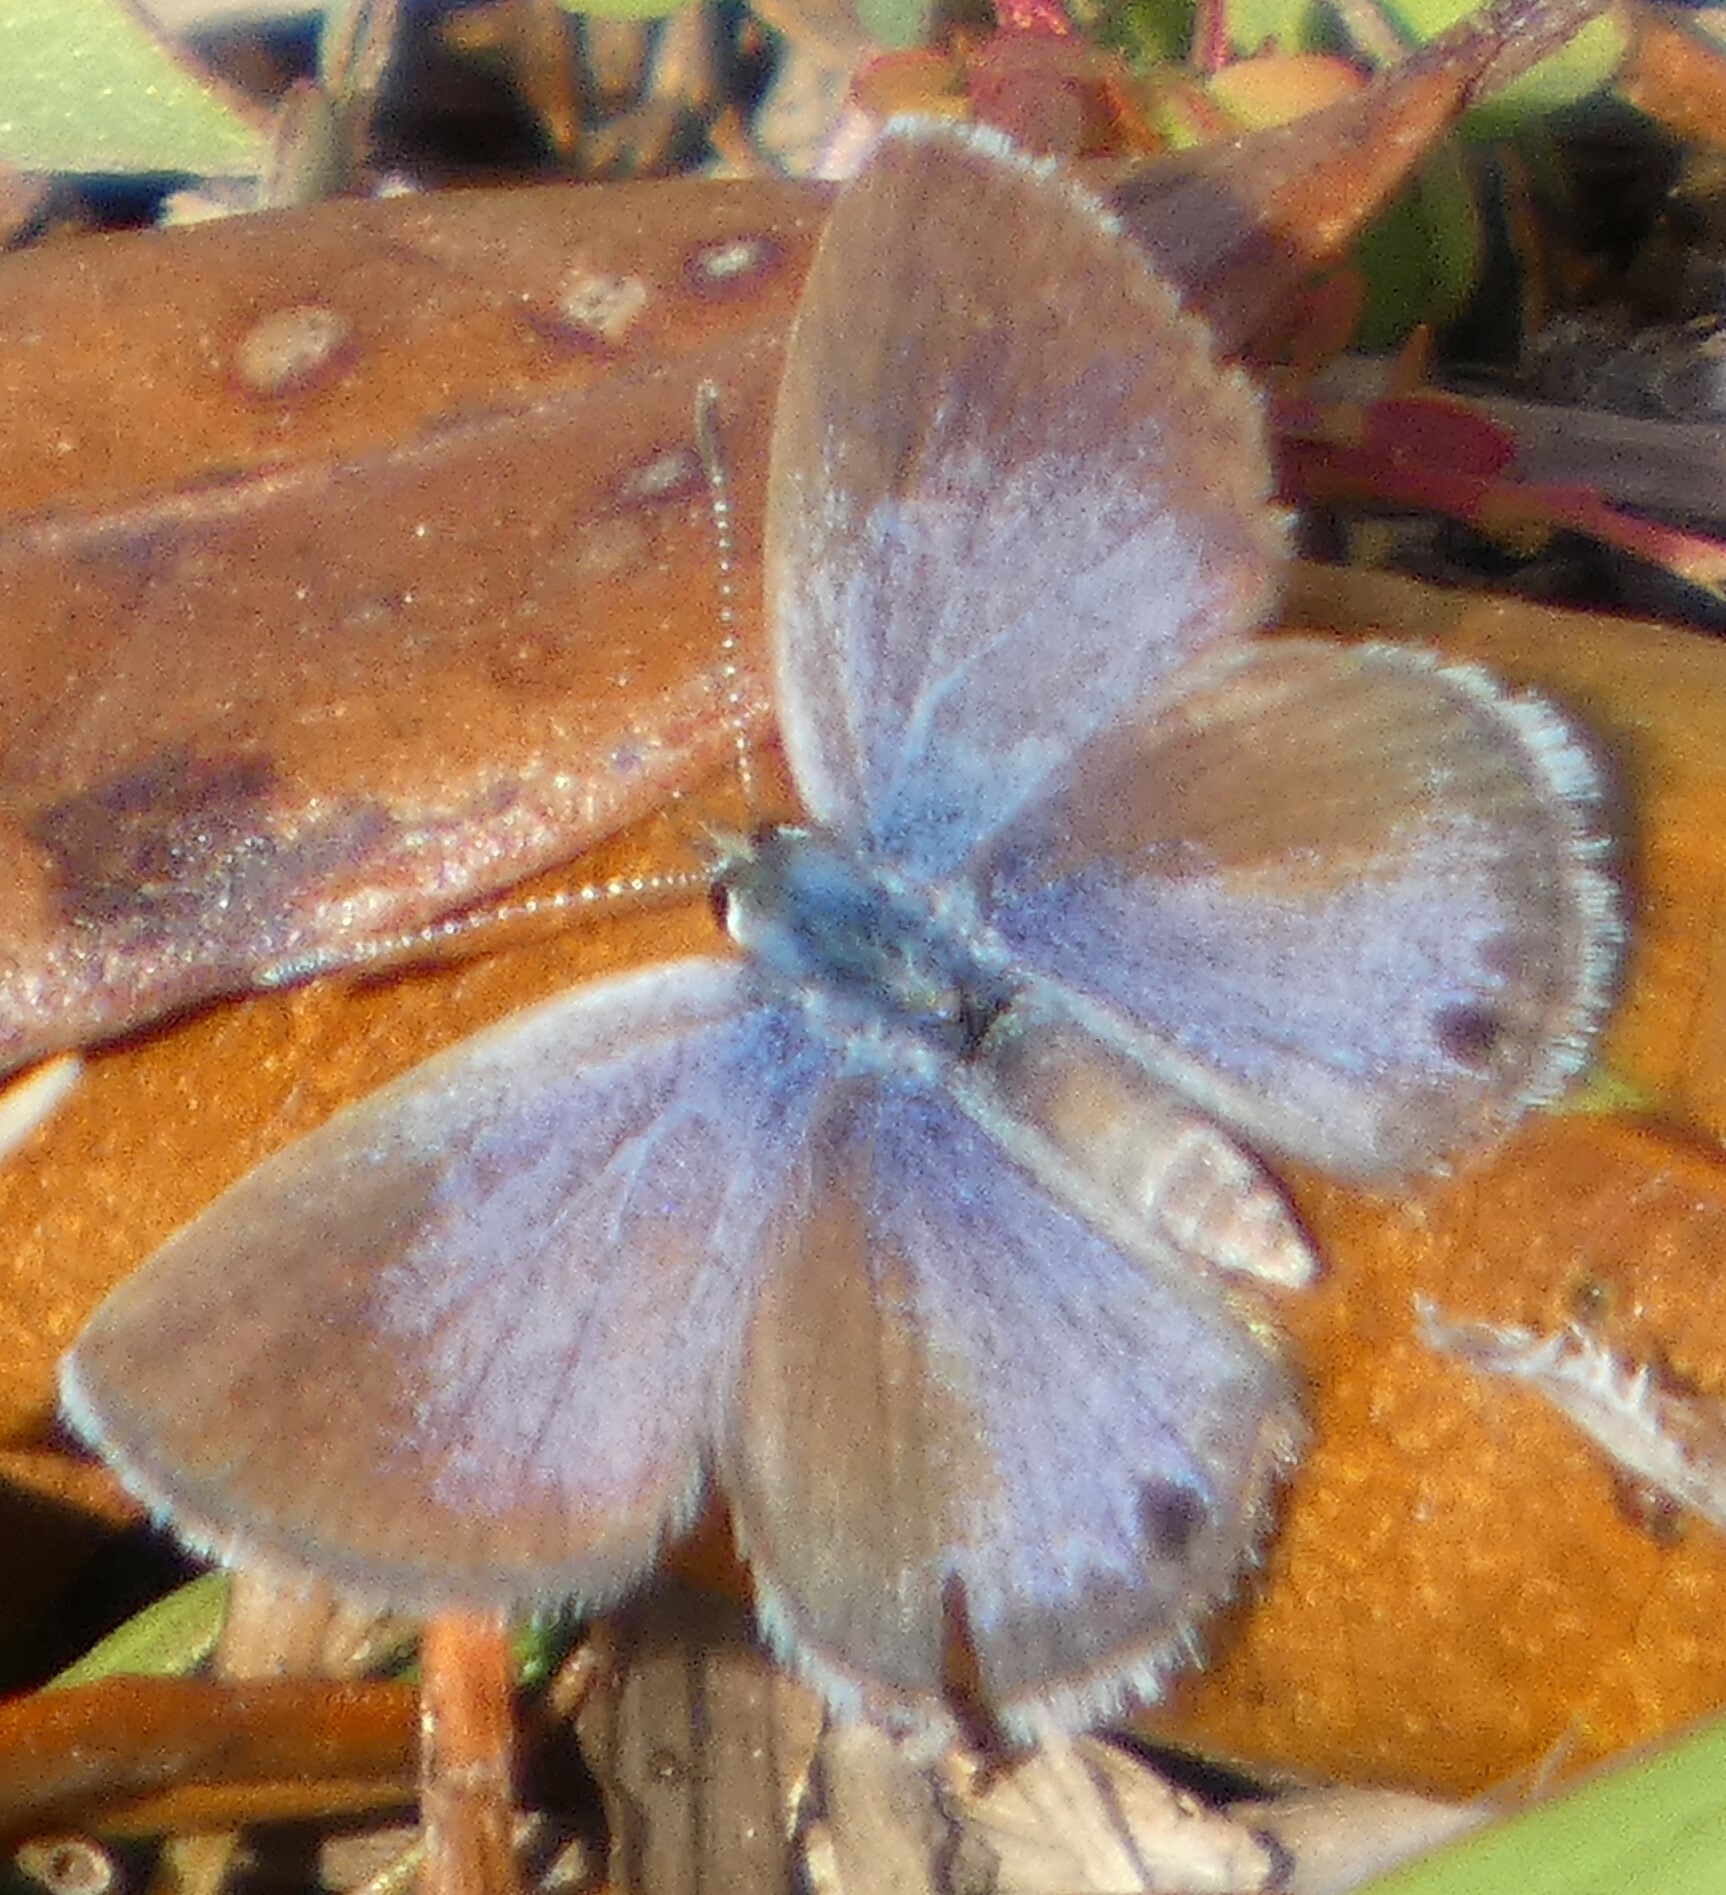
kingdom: Animalia
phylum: Arthropoda
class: Insecta
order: Lepidoptera
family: Lycaenidae
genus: Hemiargus
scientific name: Hemiargus ceraunus
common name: Ceraunus blue
